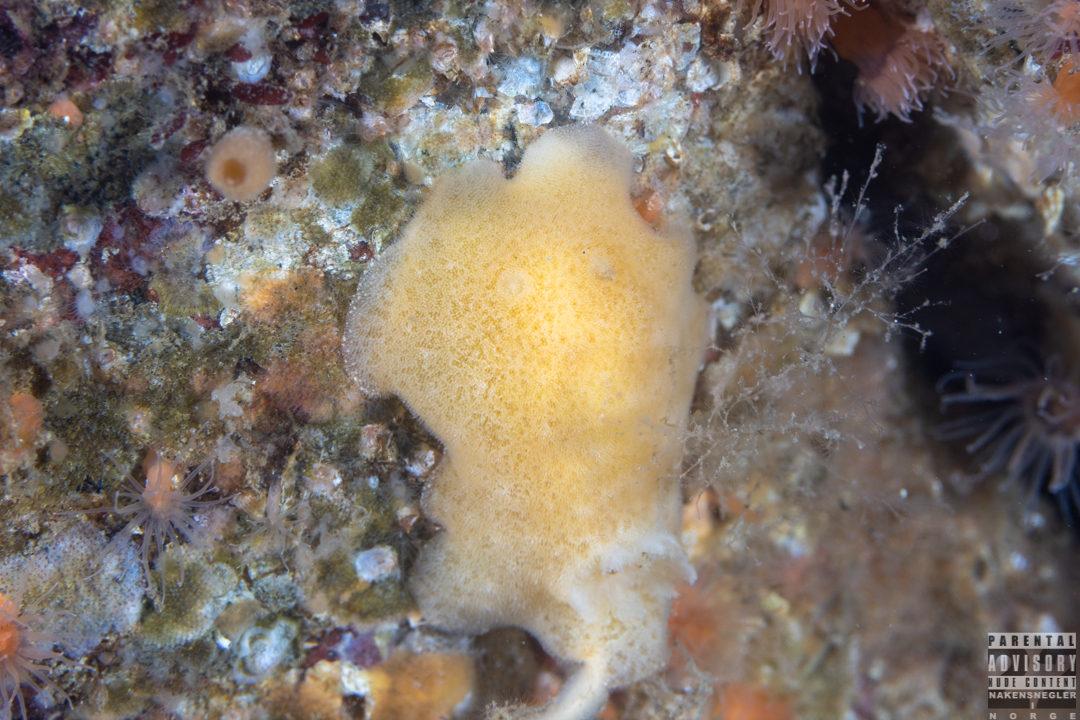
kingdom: Animalia
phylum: Mollusca
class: Gastropoda
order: Nudibranchia
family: Discodorididae
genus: Jorunna
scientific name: Jorunna tomentosa
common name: Grey sea slug
